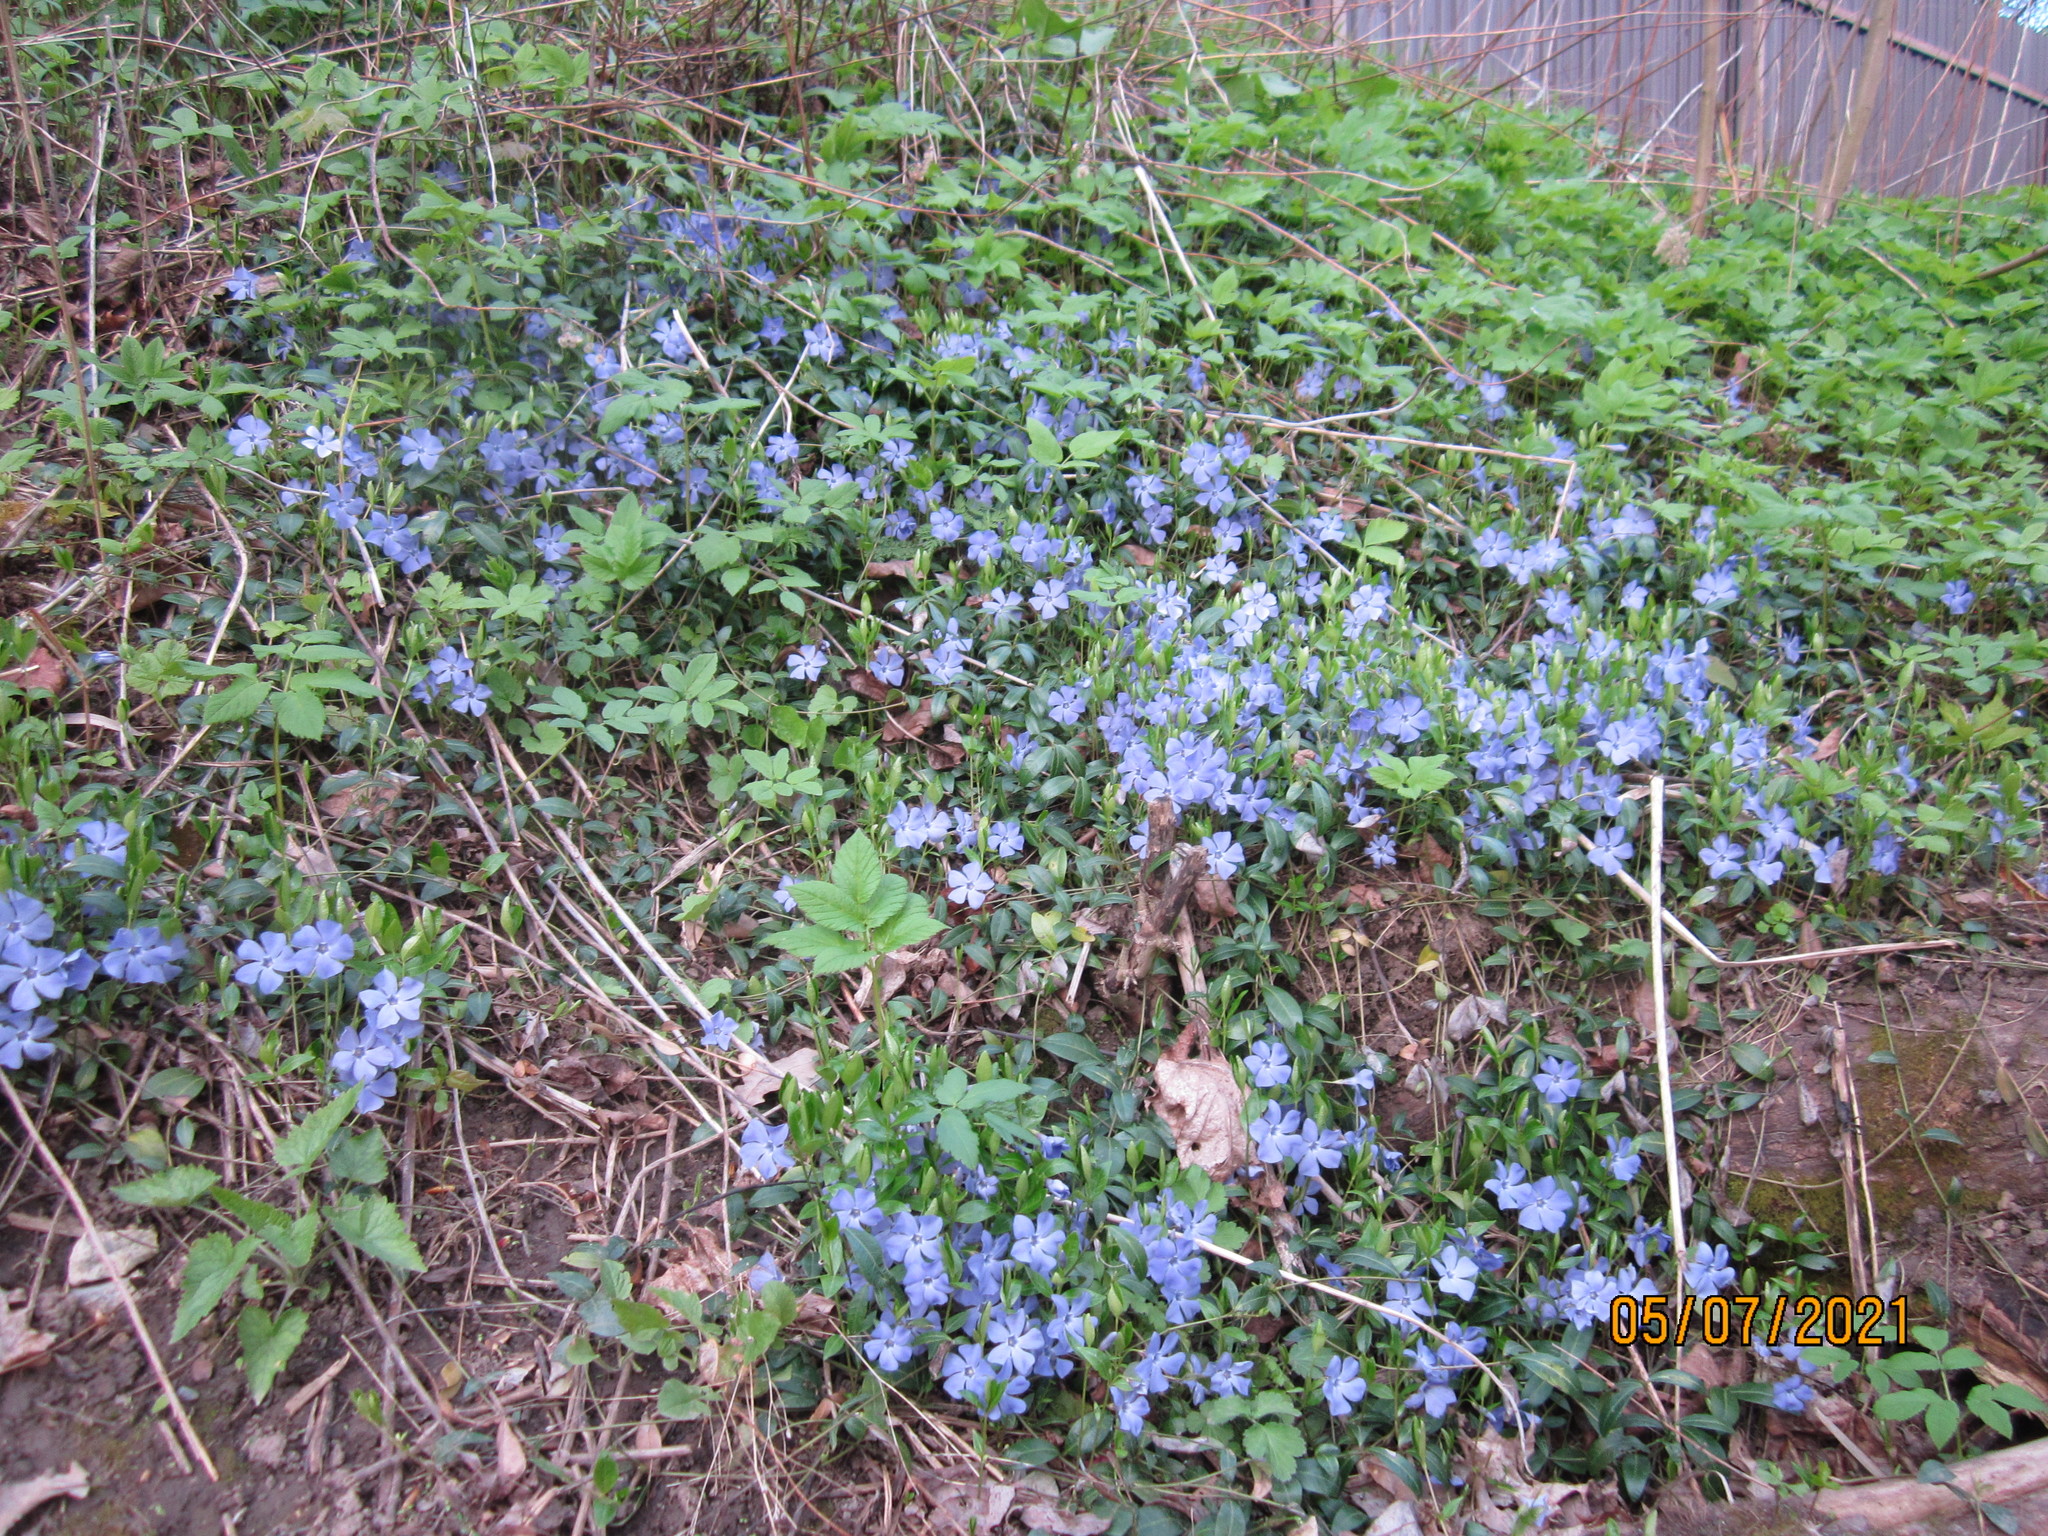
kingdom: Plantae
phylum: Tracheophyta
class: Magnoliopsida
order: Gentianales
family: Apocynaceae
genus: Vinca
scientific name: Vinca minor
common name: Lesser periwinkle
